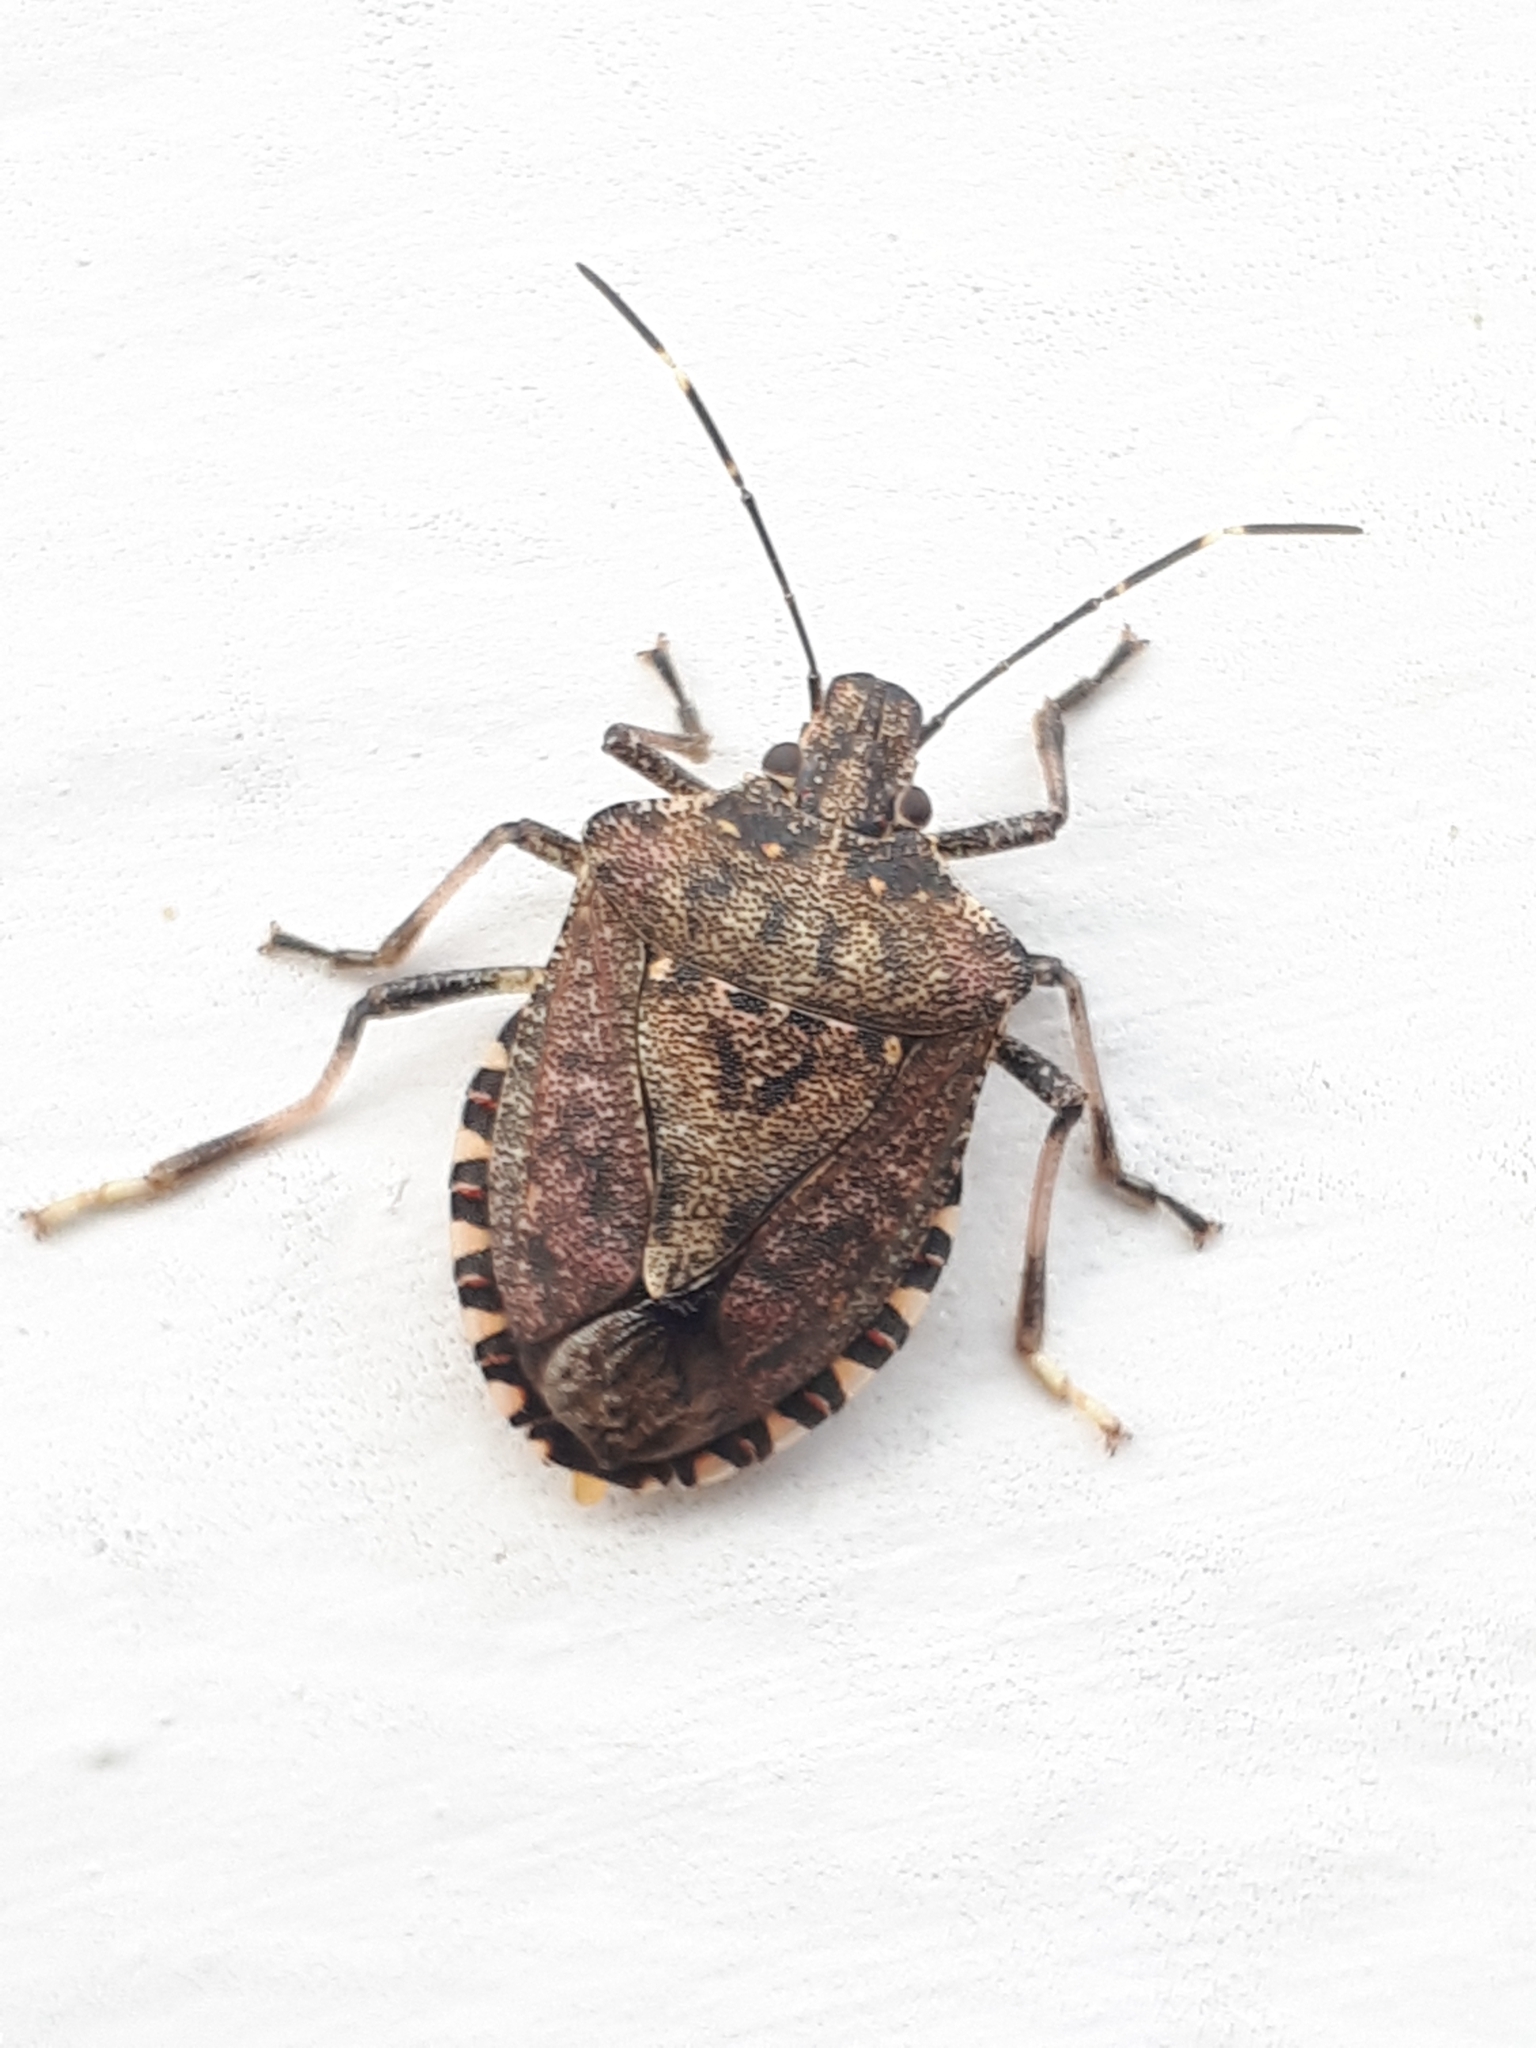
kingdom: Animalia
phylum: Arthropoda
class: Insecta
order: Hemiptera
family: Pentatomidae
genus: Halyomorpha
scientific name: Halyomorpha halys
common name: Brown marmorated stink bug
